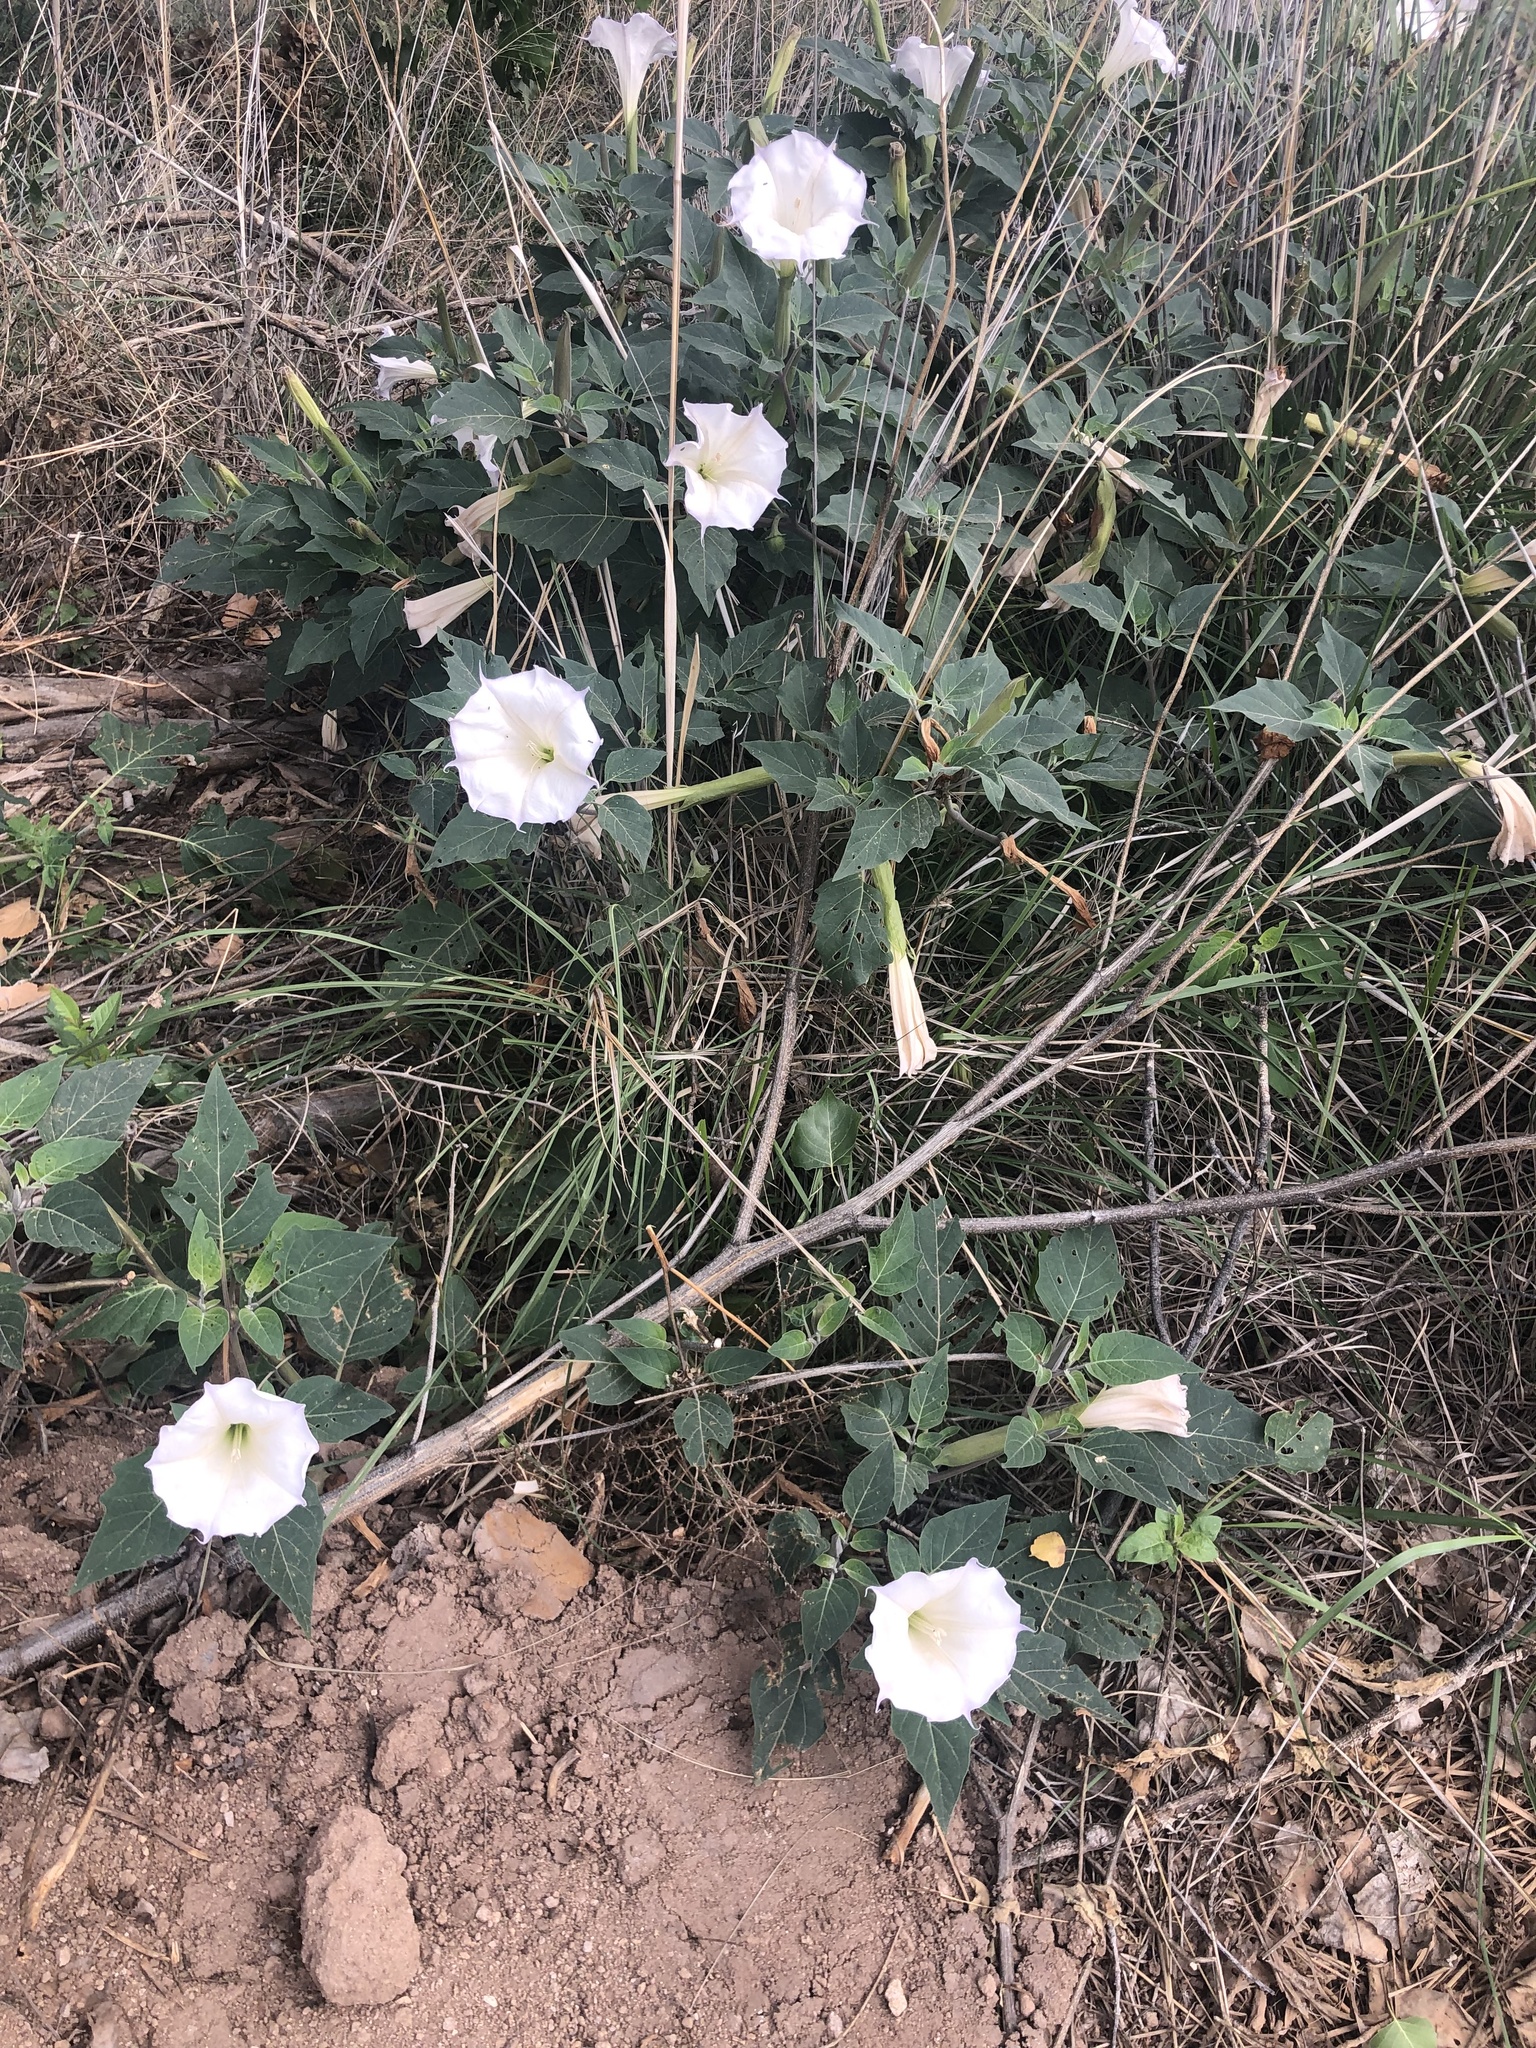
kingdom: Plantae
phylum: Tracheophyta
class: Magnoliopsida
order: Solanales
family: Solanaceae
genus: Datura
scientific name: Datura wrightii
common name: Sacred thorn-apple
